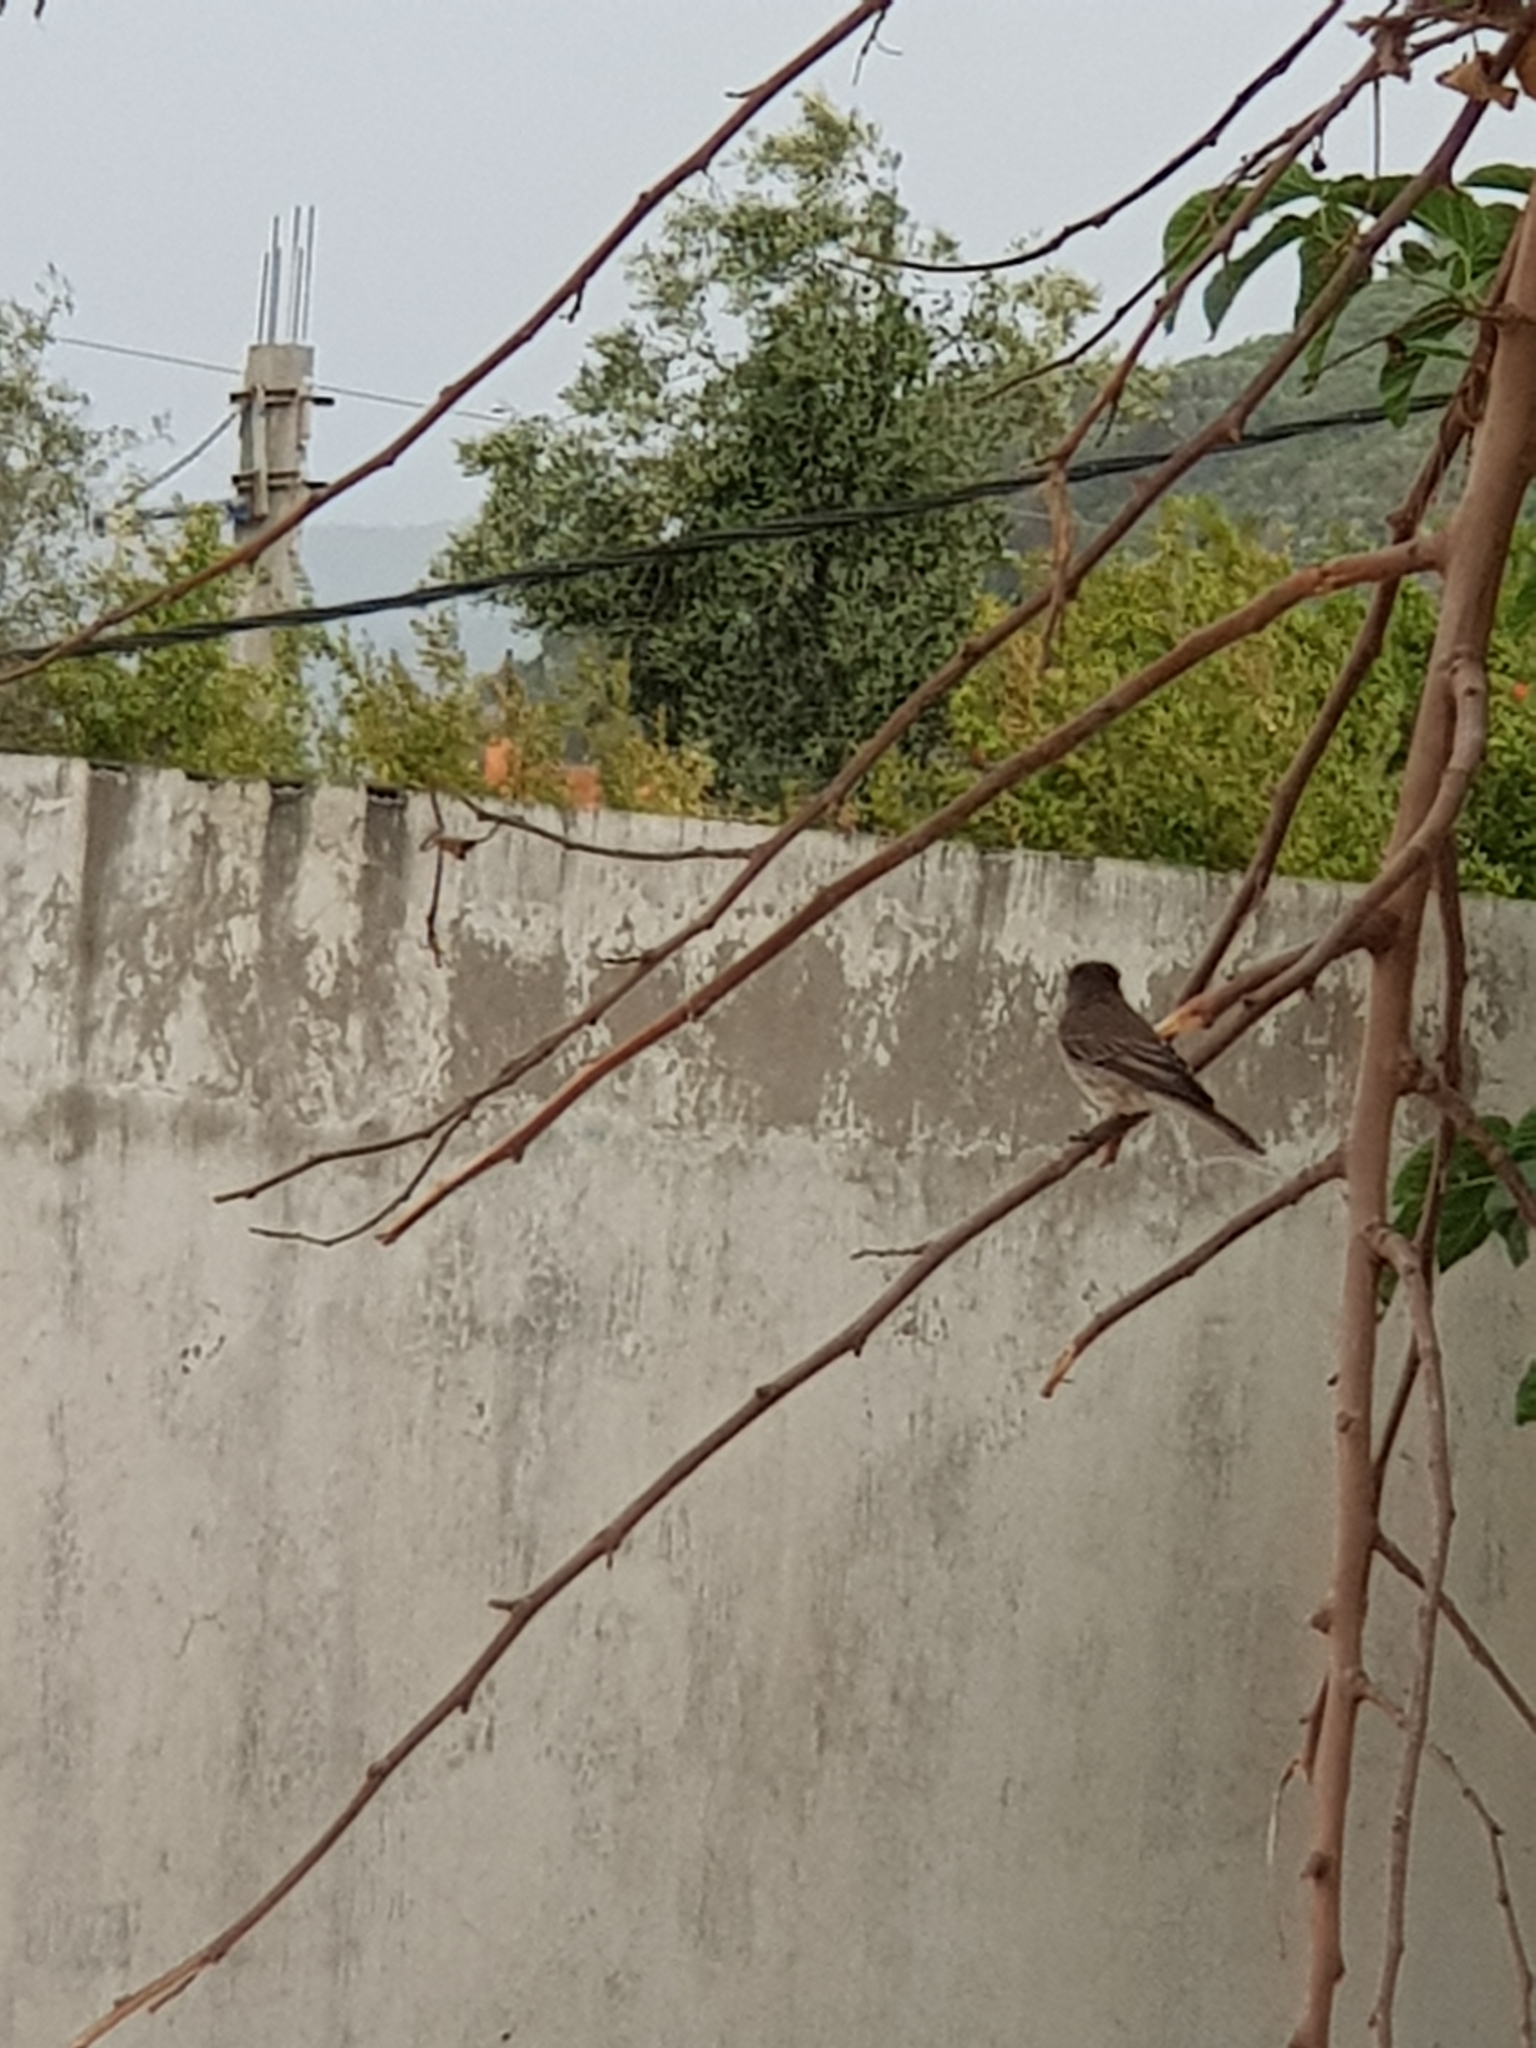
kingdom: Animalia
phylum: Chordata
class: Aves
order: Passeriformes
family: Muscicapidae
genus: Muscicapa
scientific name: Muscicapa striata
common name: Spotted flycatcher
